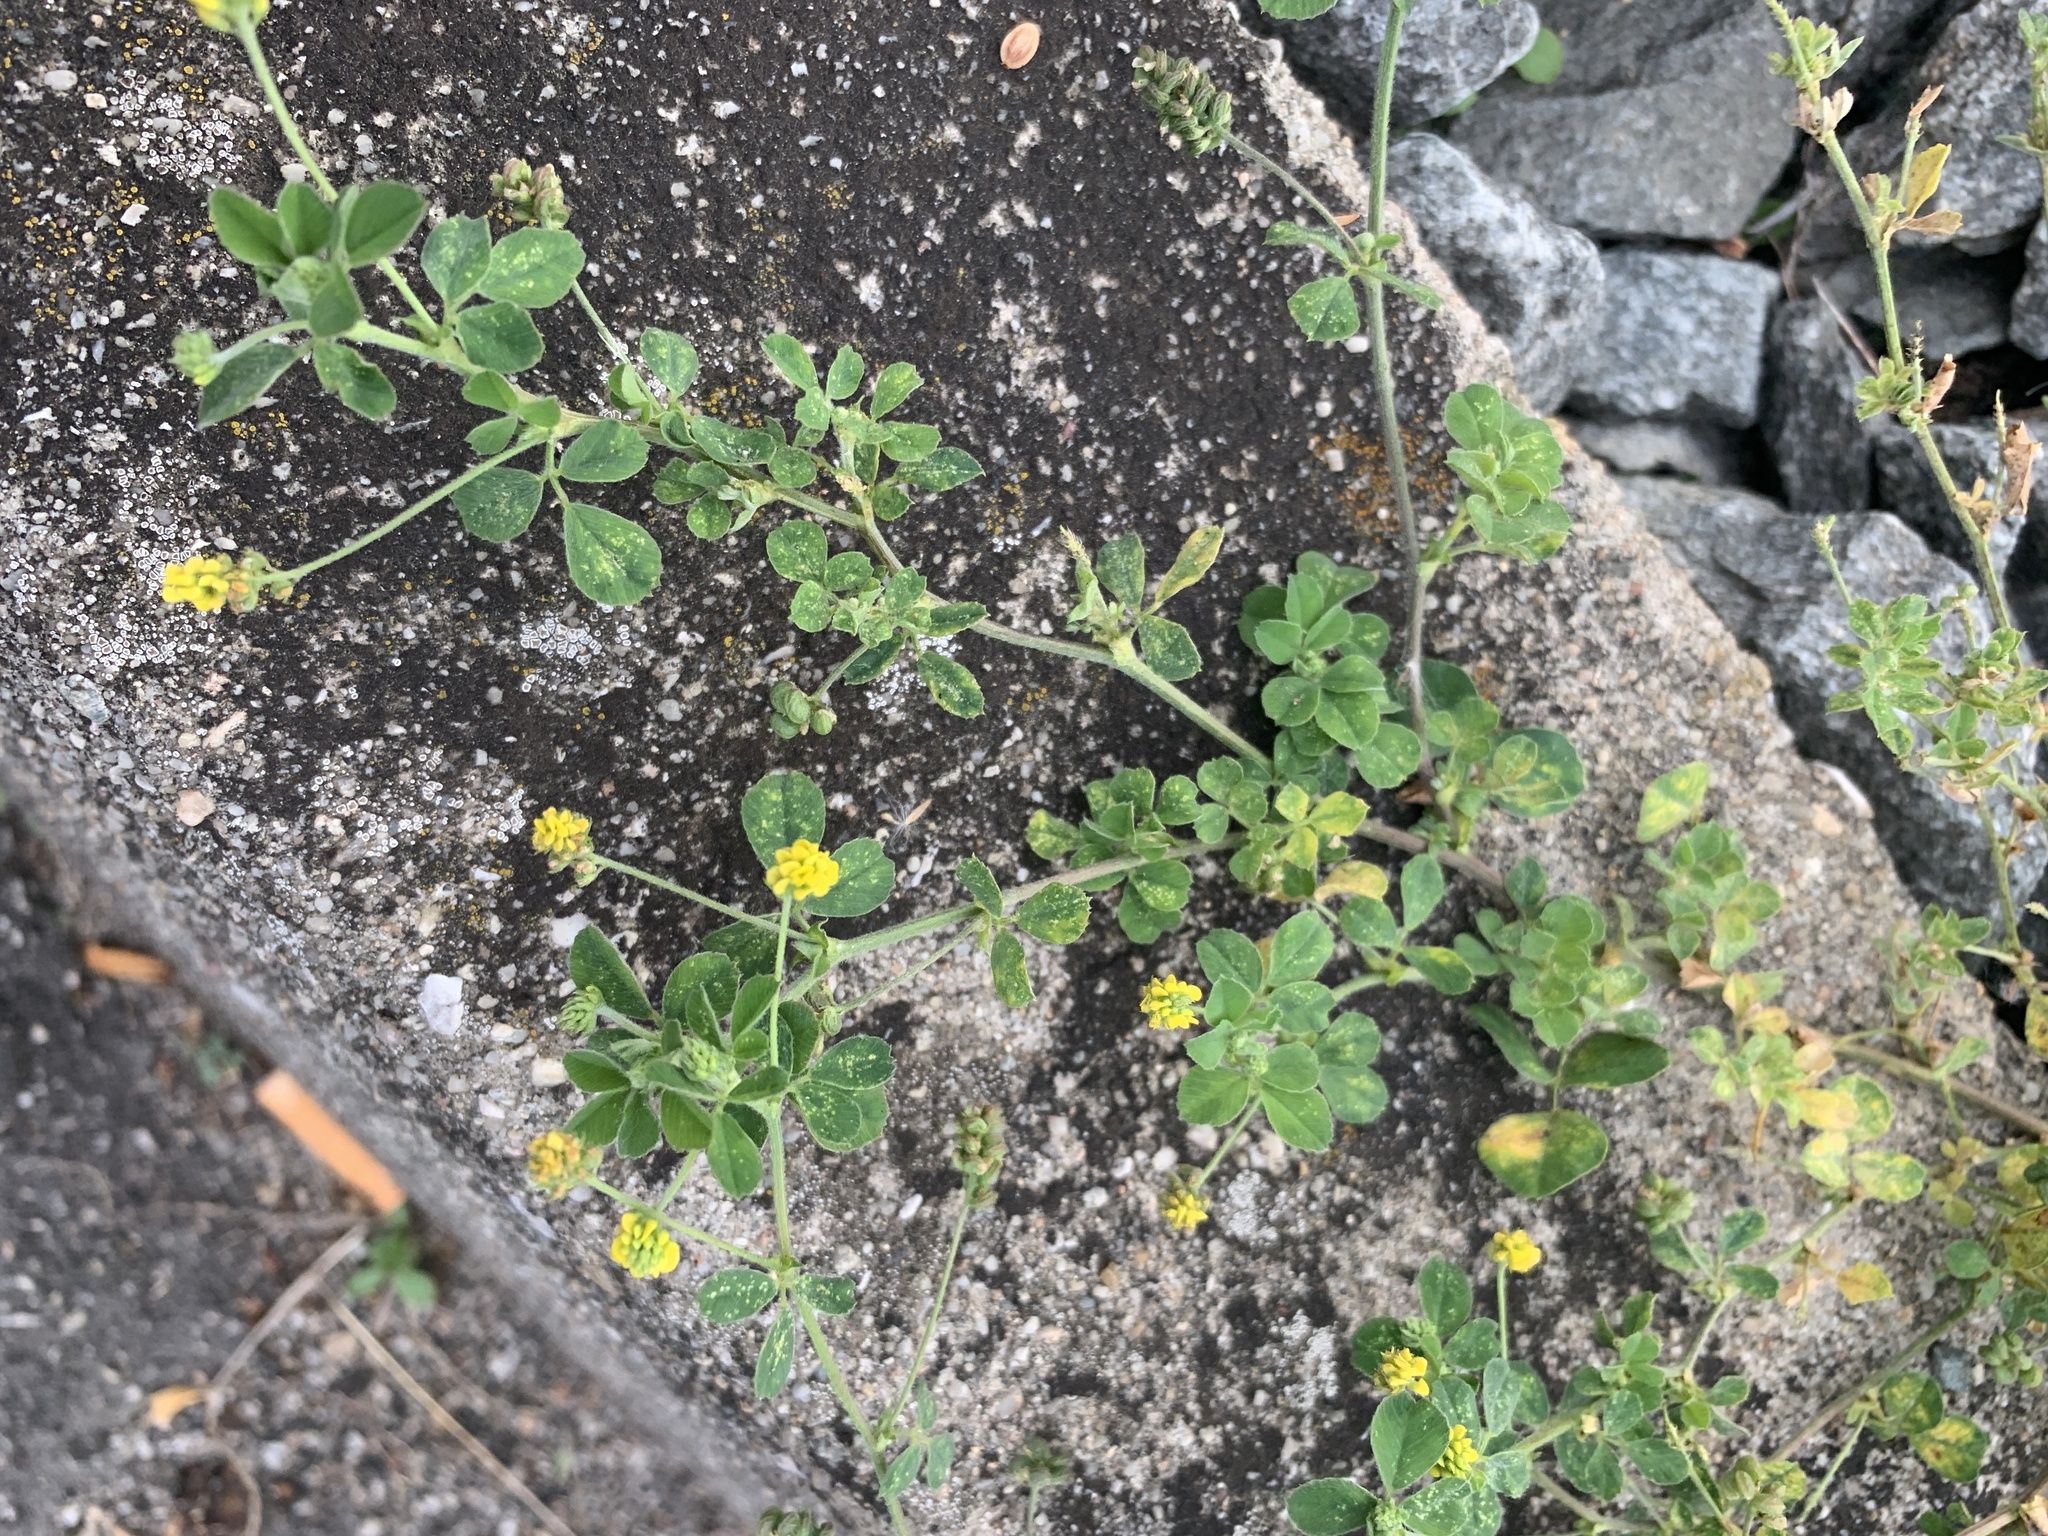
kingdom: Plantae
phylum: Tracheophyta
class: Magnoliopsida
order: Fabales
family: Fabaceae
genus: Medicago
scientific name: Medicago lupulina
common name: Black medick
